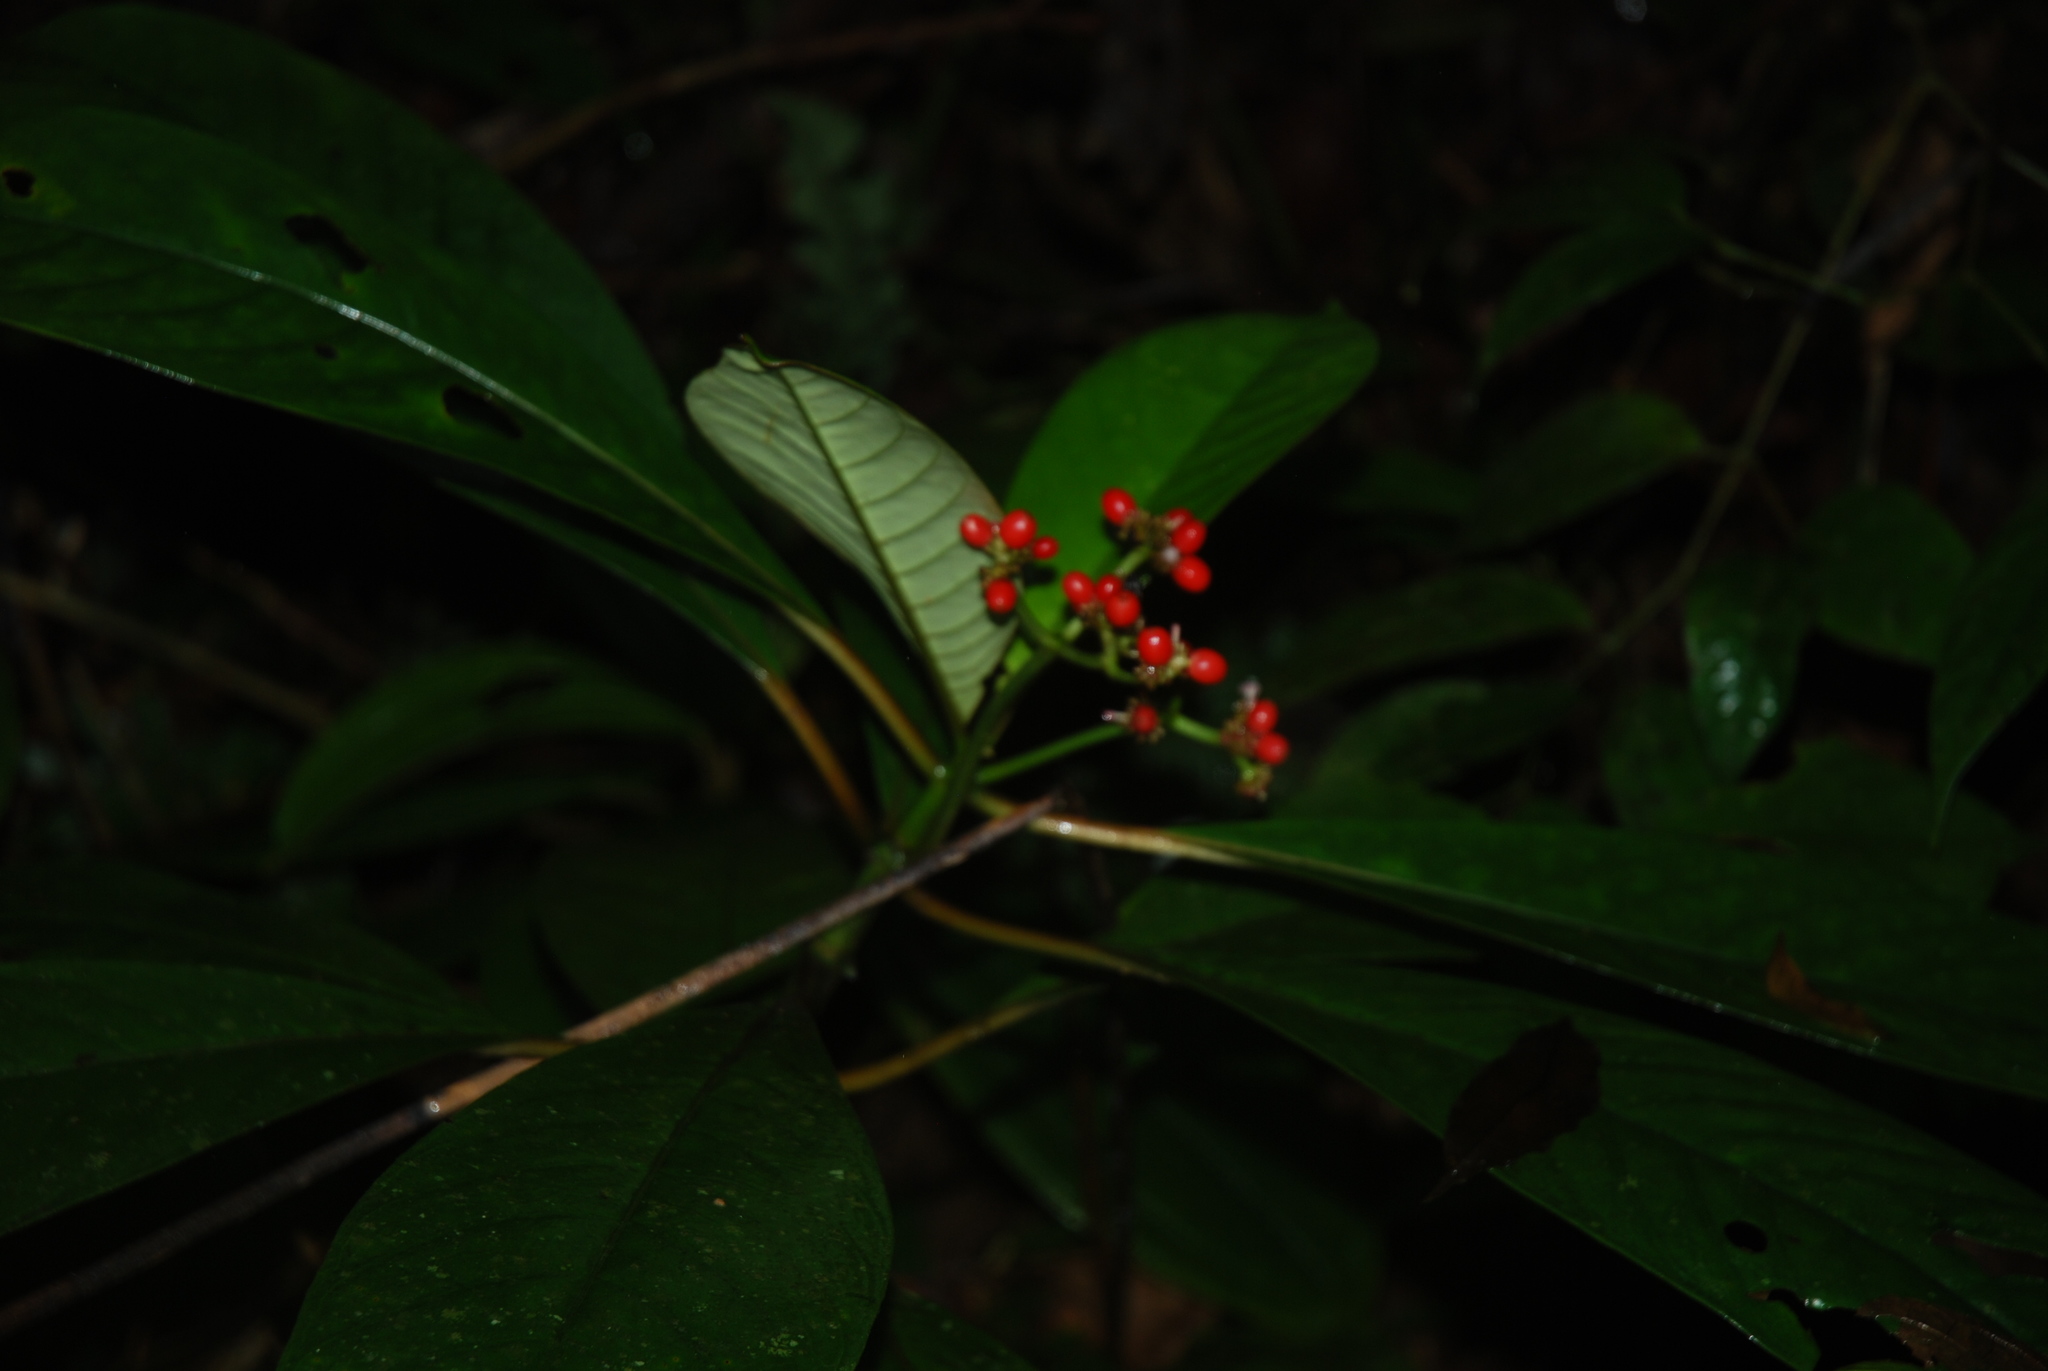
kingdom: Plantae
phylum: Tracheophyta
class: Magnoliopsida
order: Gentianales
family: Rubiaceae
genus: Notopleura
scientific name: Notopleura uliginosa
